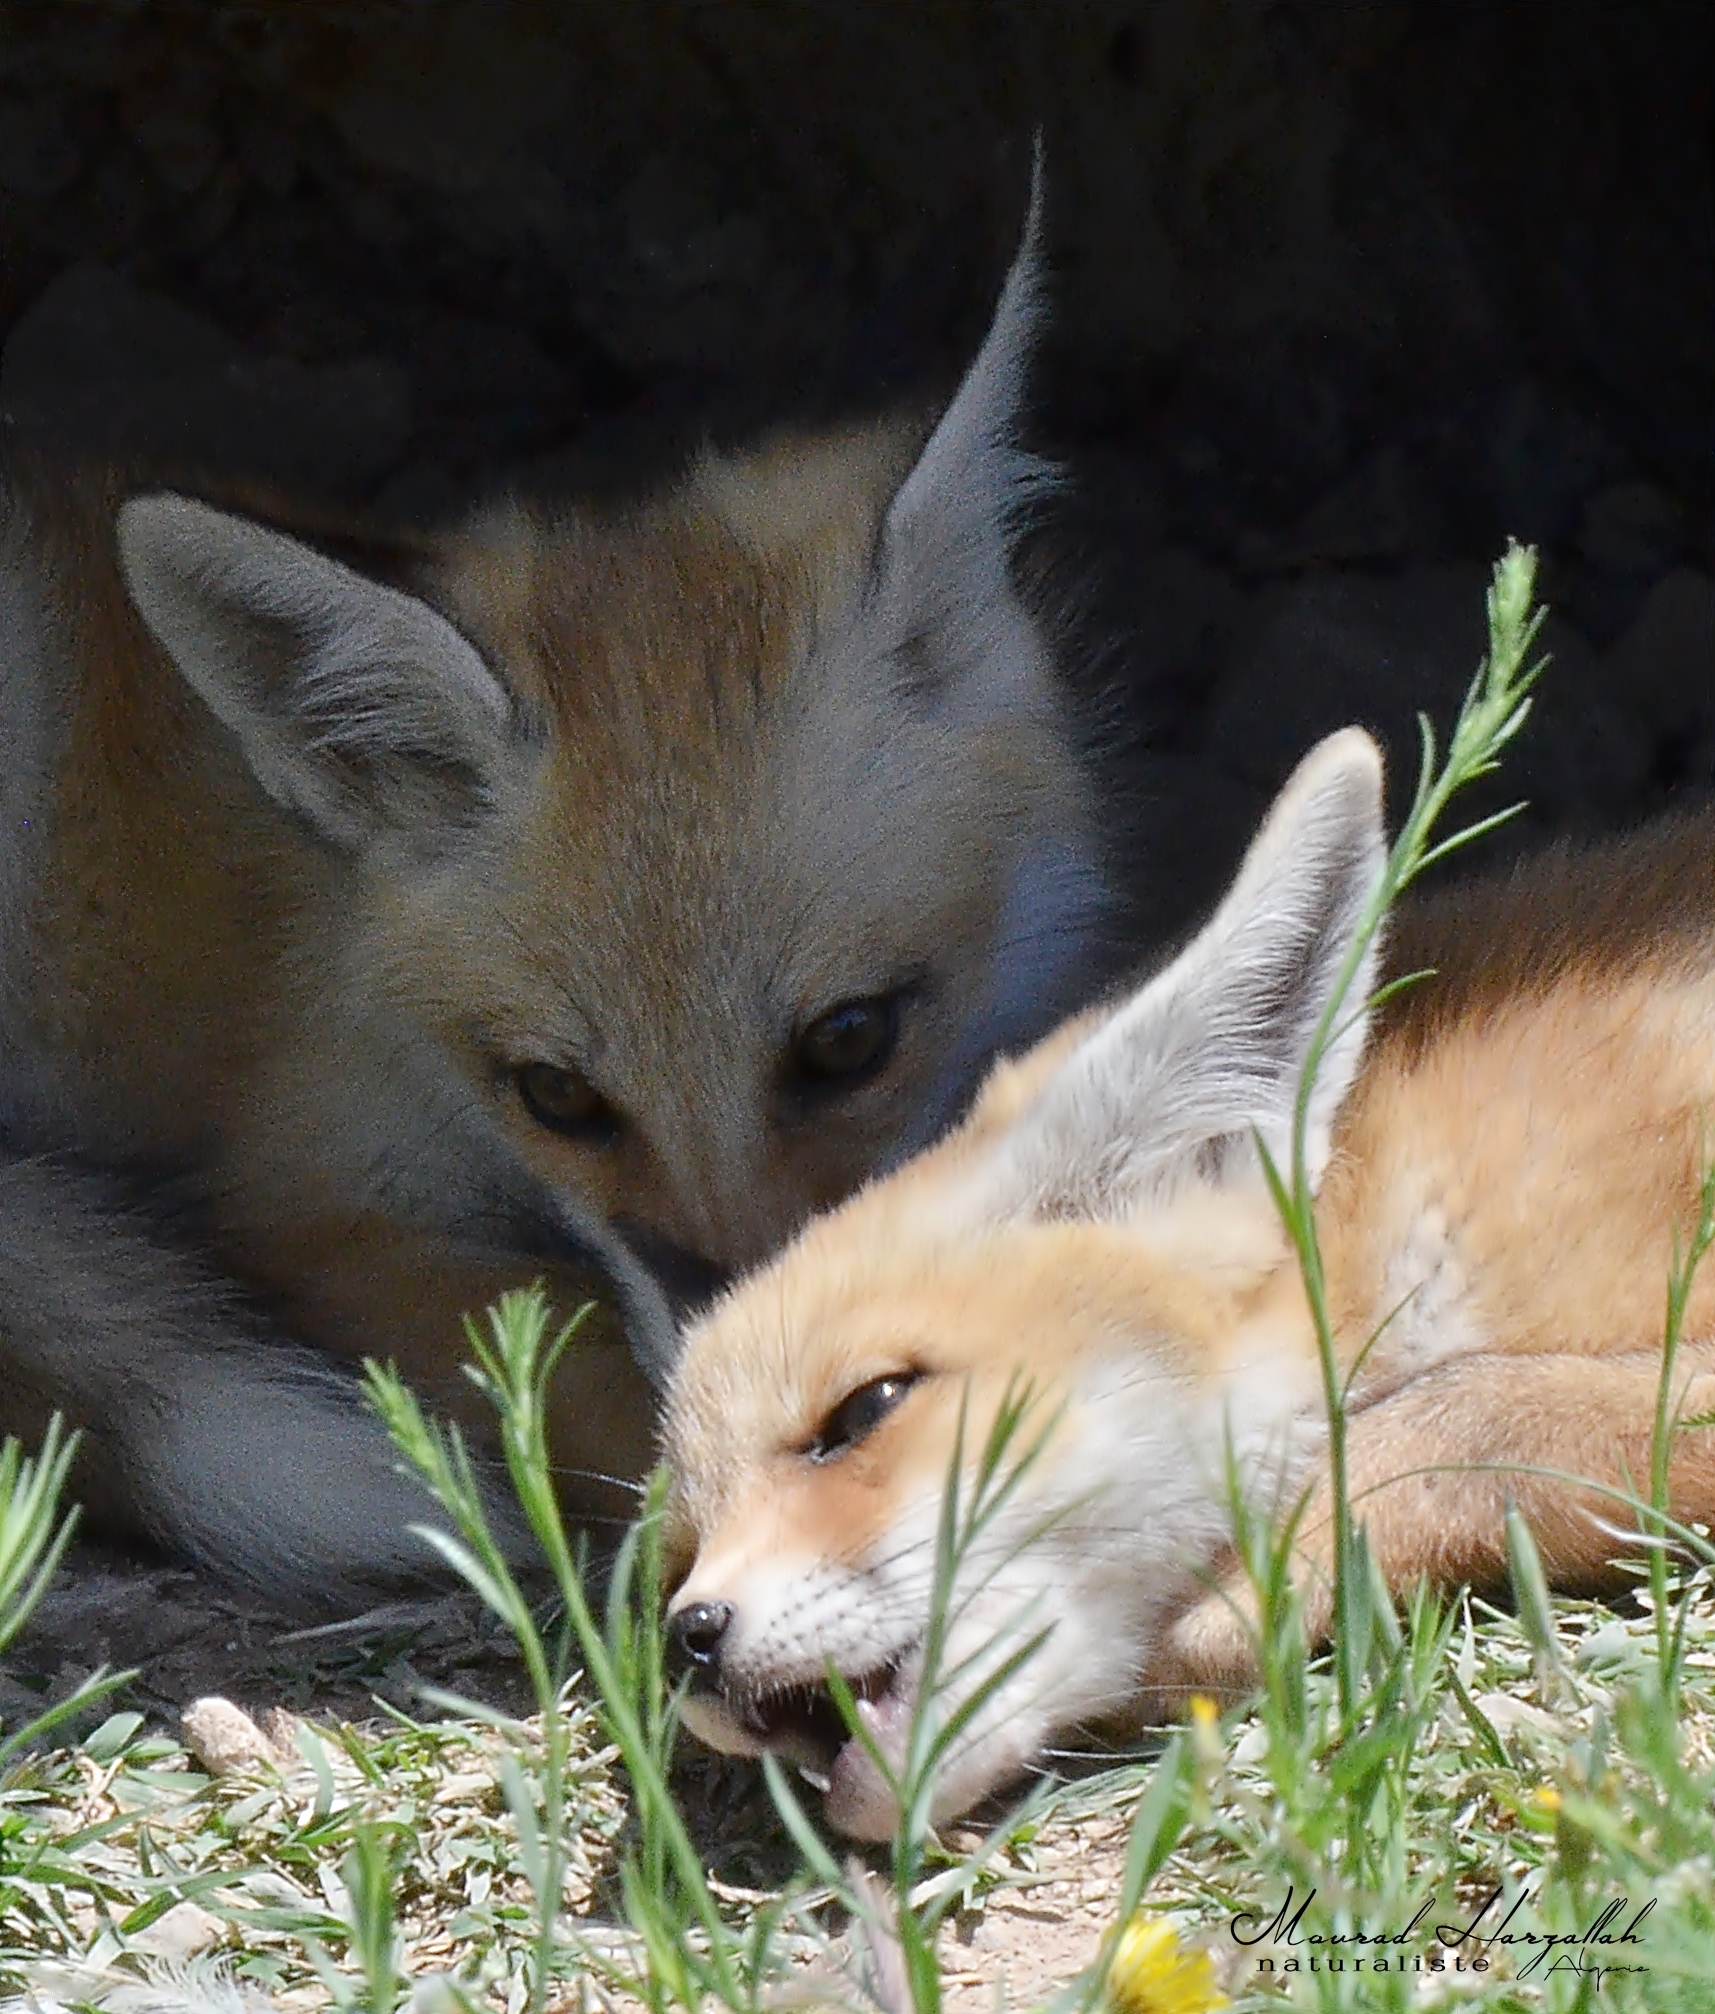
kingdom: Animalia
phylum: Chordata
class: Mammalia
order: Carnivora
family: Canidae
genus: Vulpes
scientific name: Vulpes vulpes
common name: Red fox
